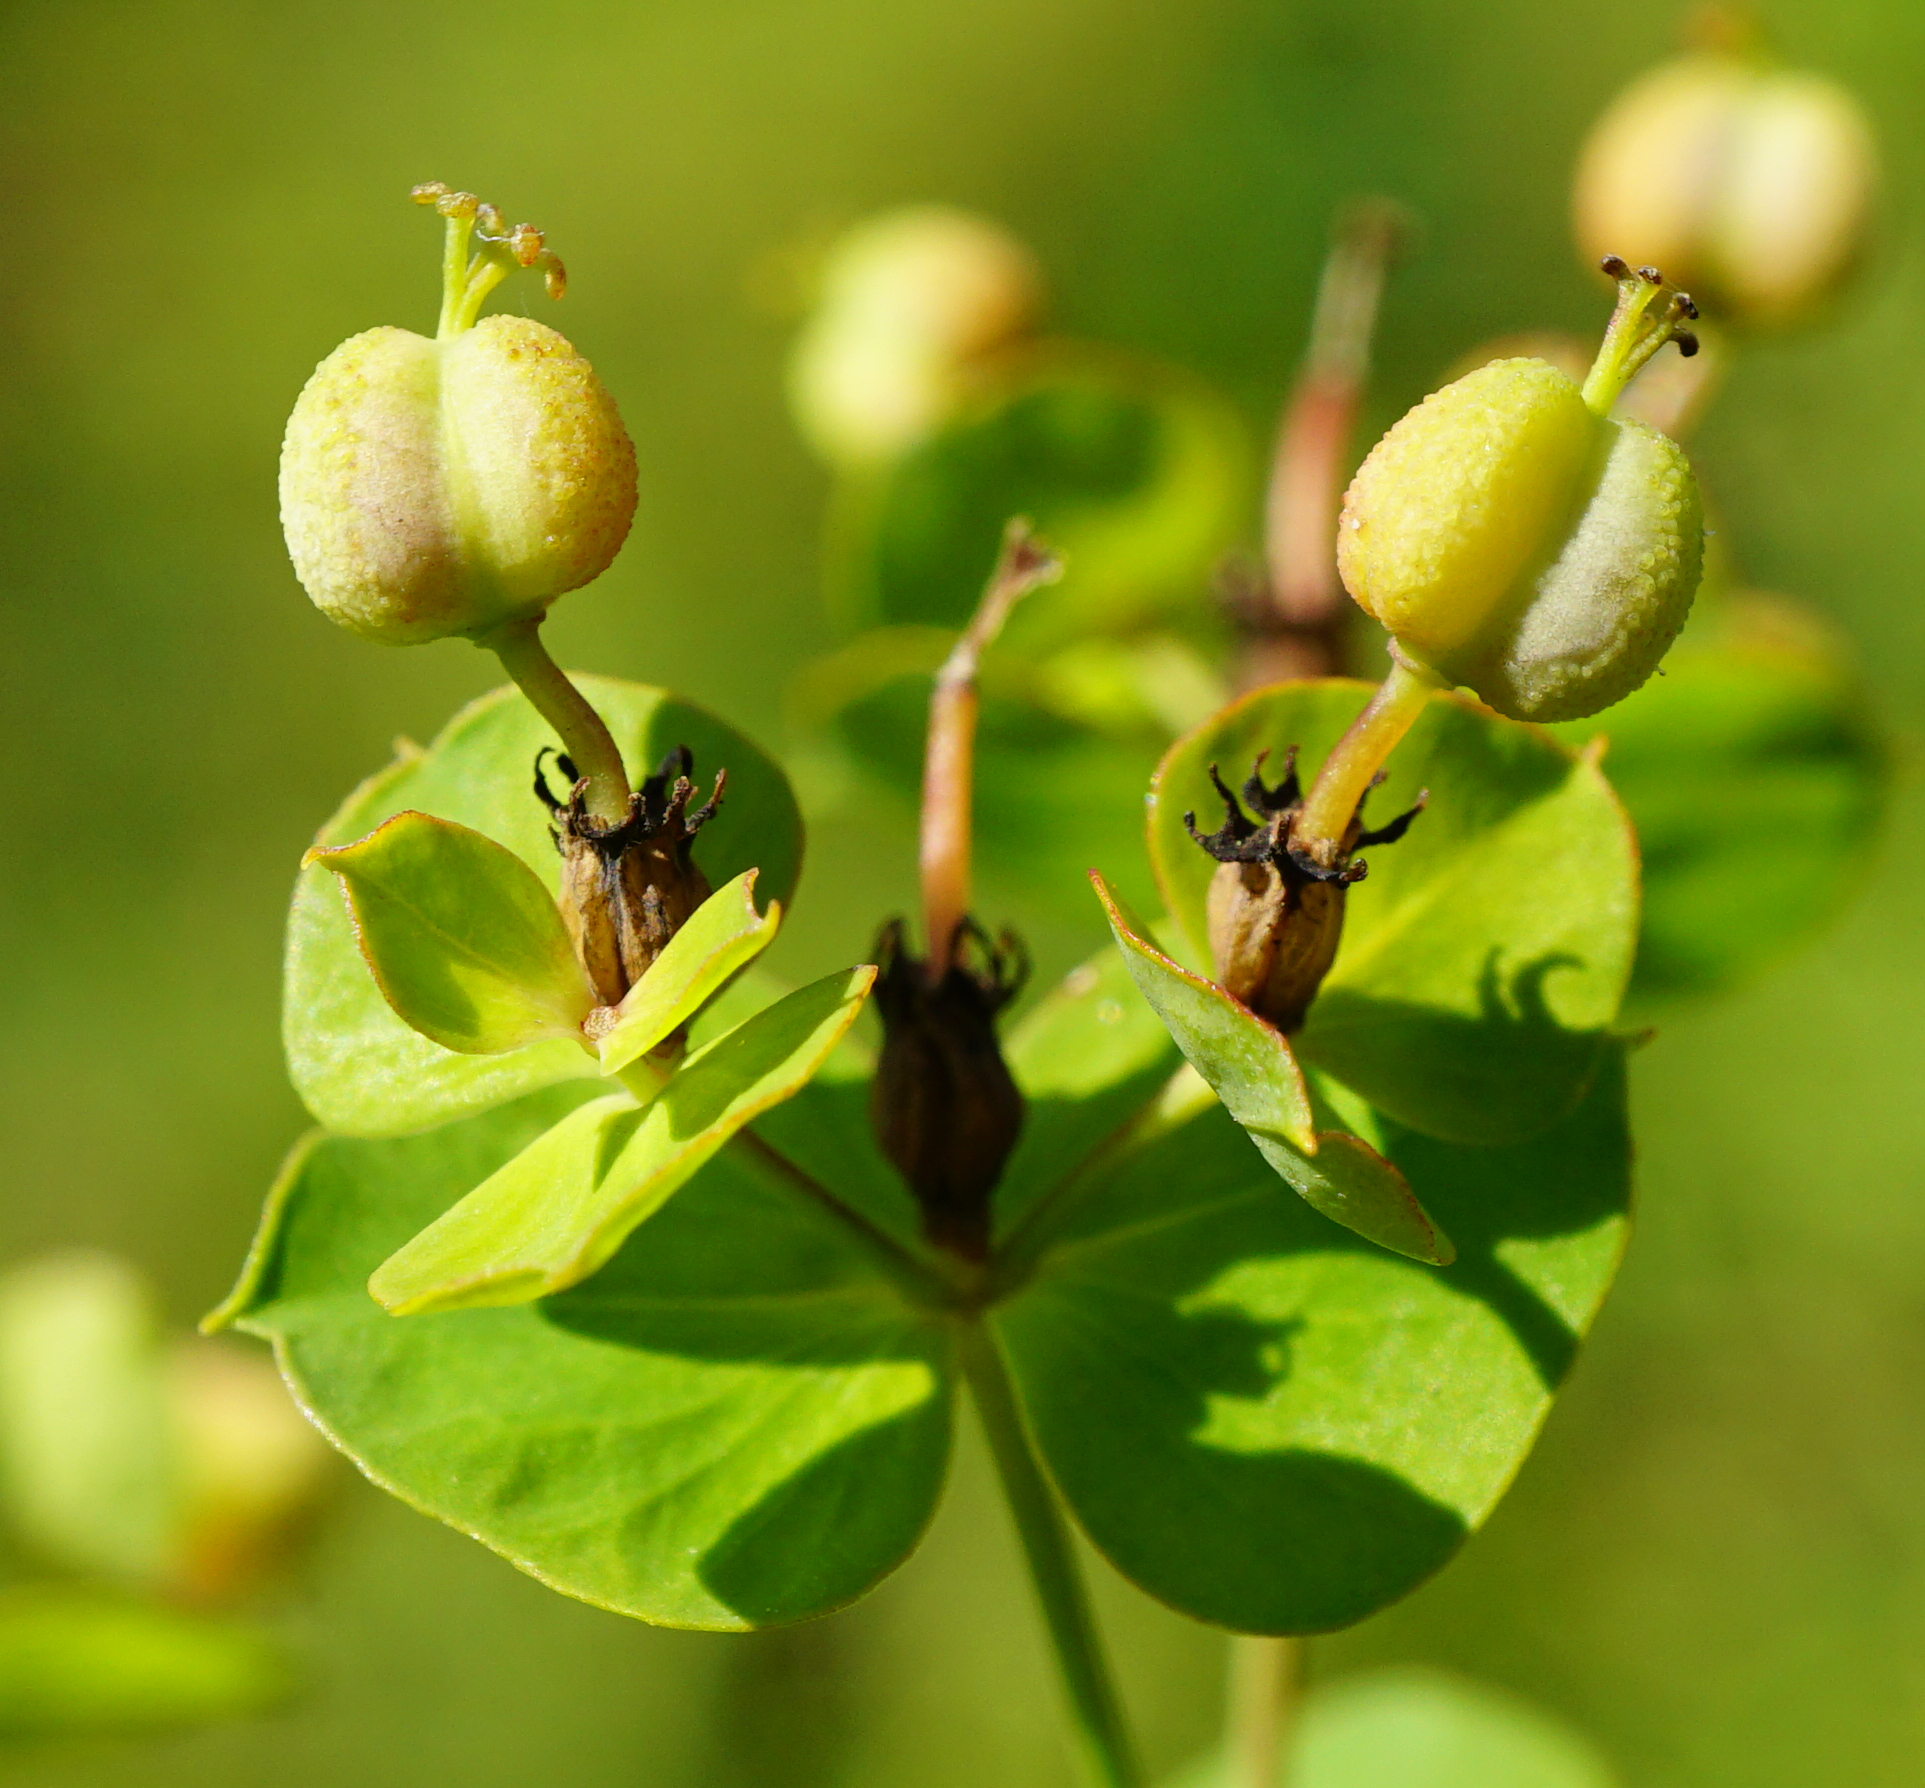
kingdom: Plantae
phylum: Tracheophyta
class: Magnoliopsida
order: Malpighiales
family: Euphorbiaceae
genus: Euphorbia
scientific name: Euphorbia virgata
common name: Leafy spurge
